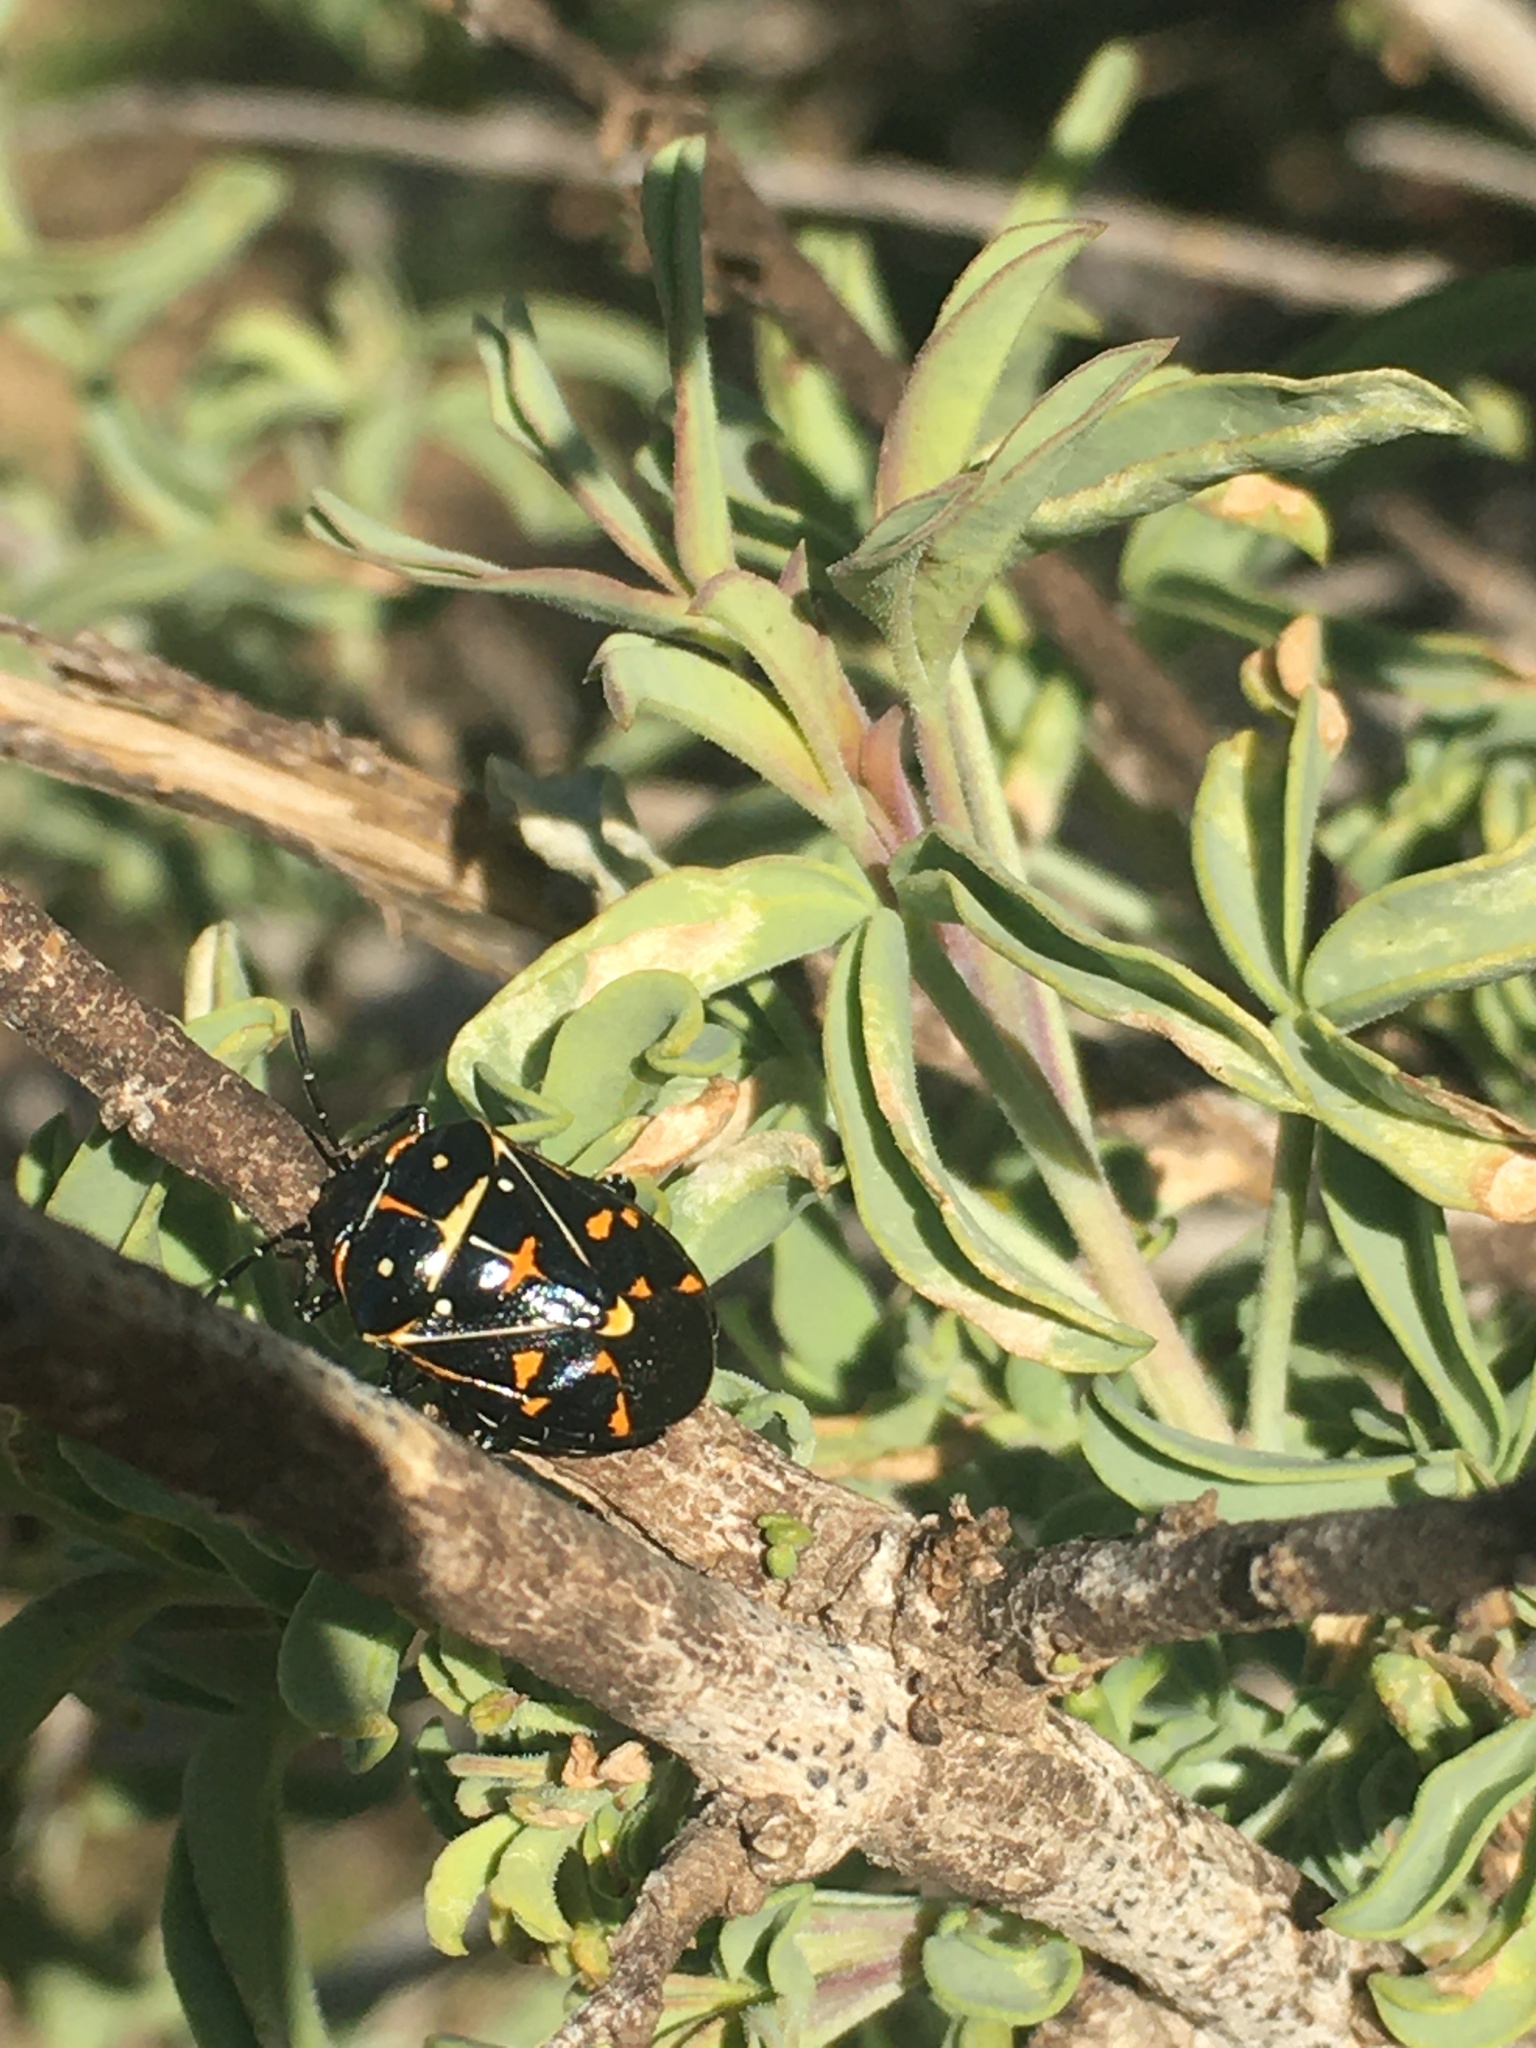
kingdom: Animalia
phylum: Arthropoda
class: Insecta
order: Hemiptera
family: Pentatomidae
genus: Murgantia
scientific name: Murgantia histrionica
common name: Harlequin bug
